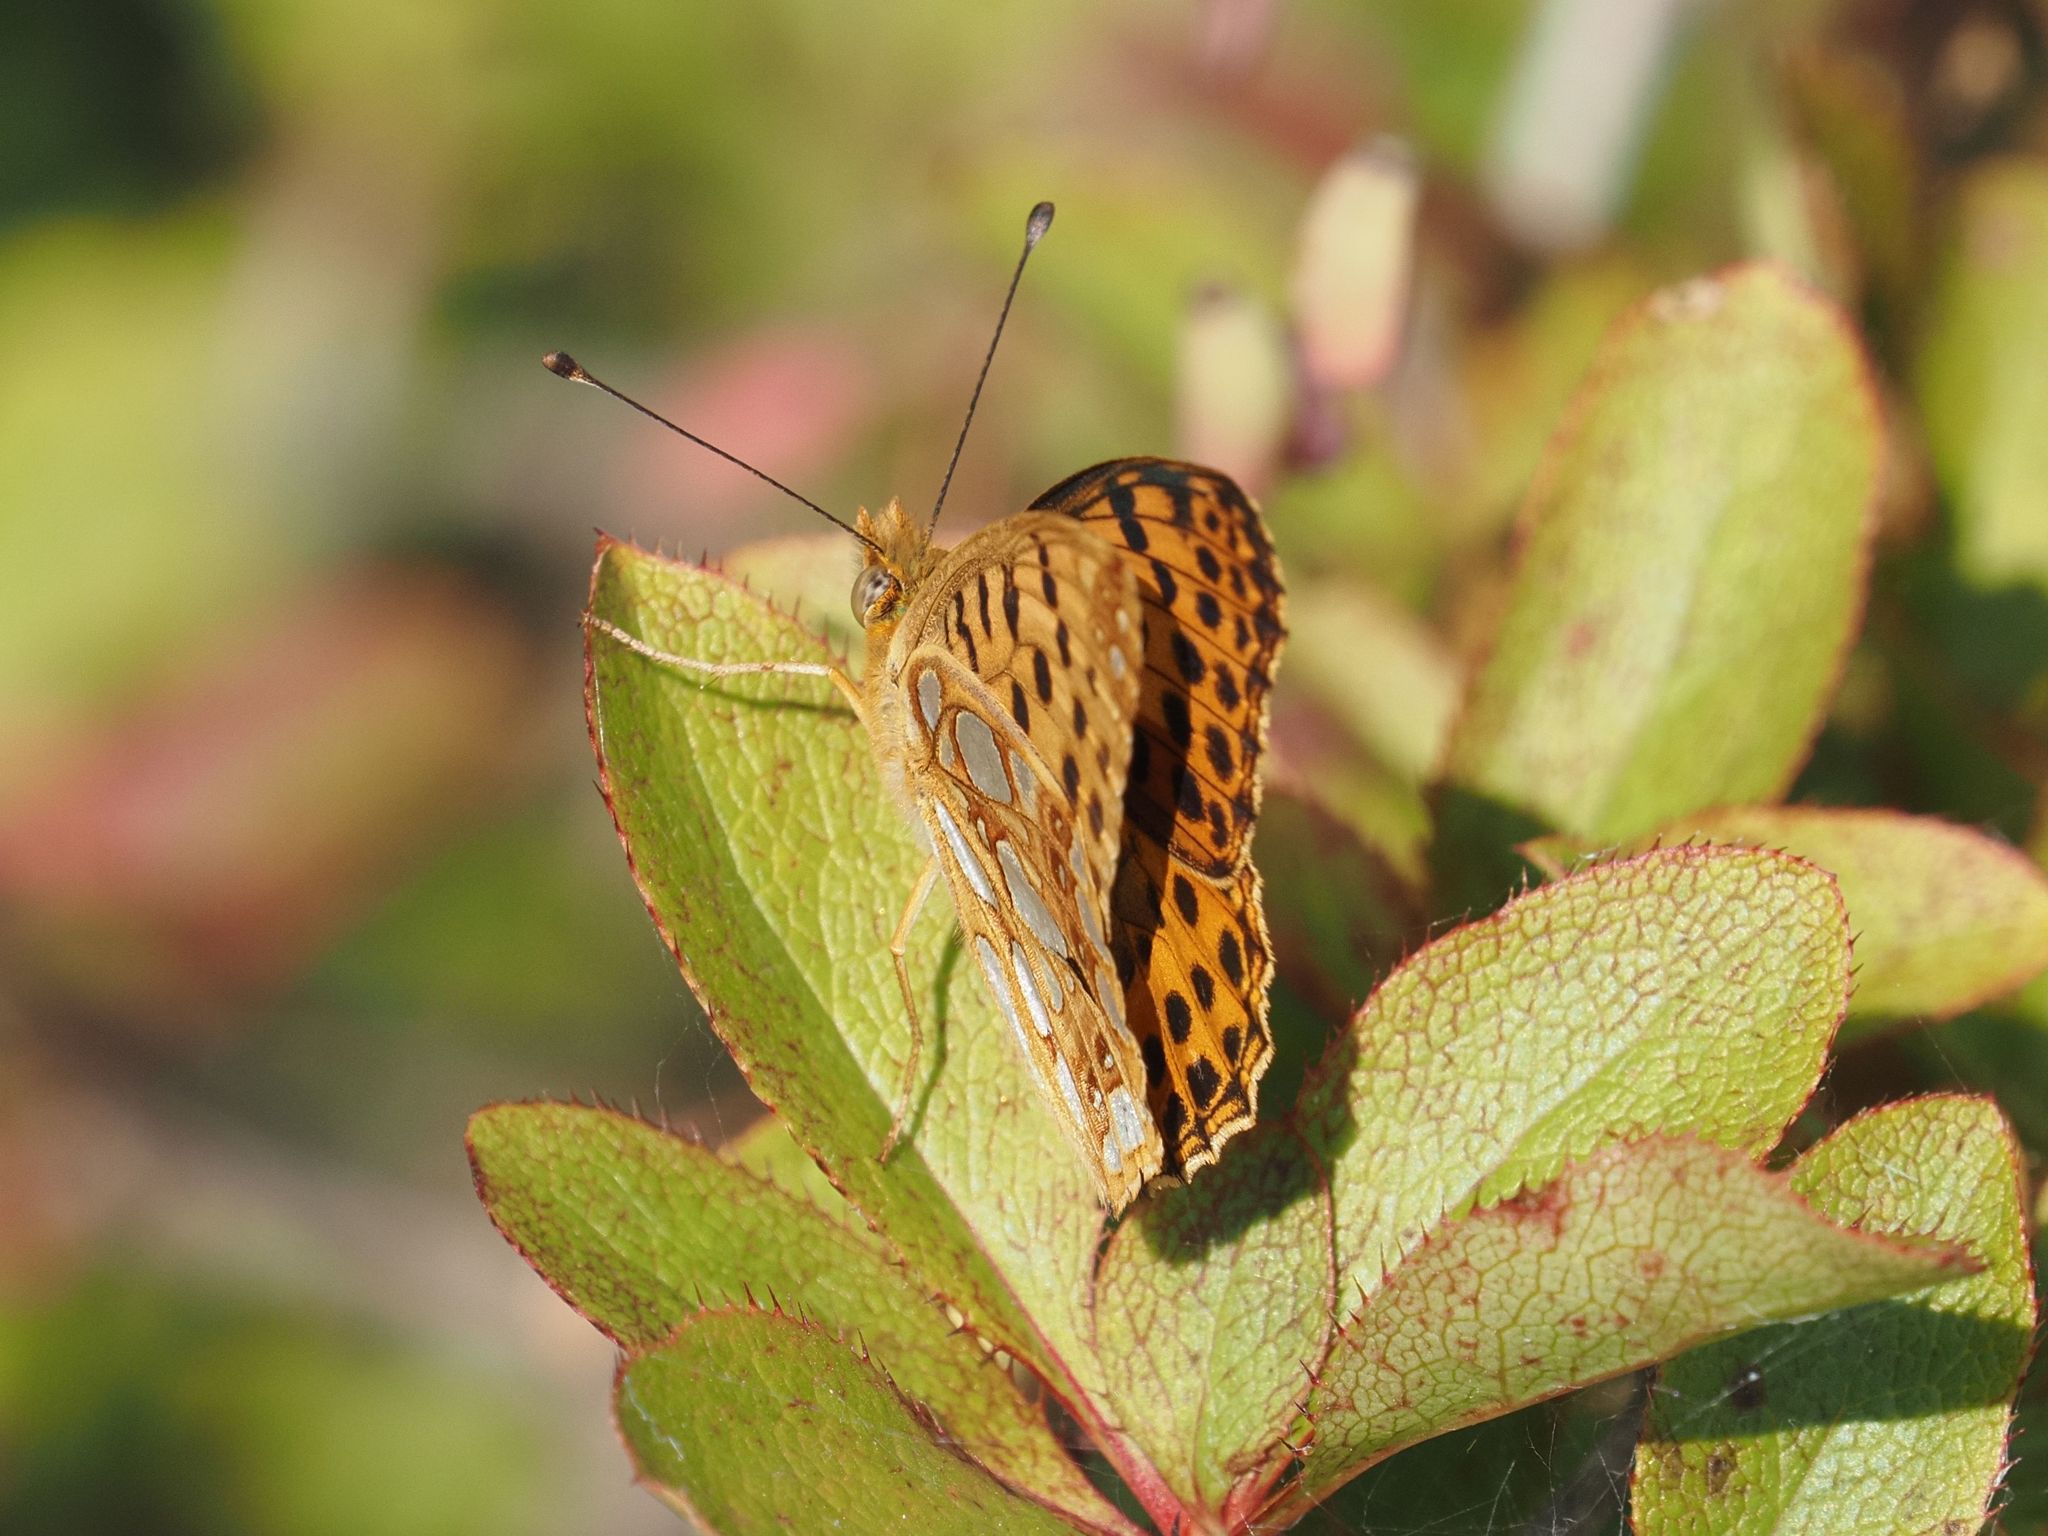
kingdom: Animalia
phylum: Arthropoda
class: Insecta
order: Lepidoptera
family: Nymphalidae
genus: Issoria
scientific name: Issoria lathonia
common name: Queen of spain fritillary
